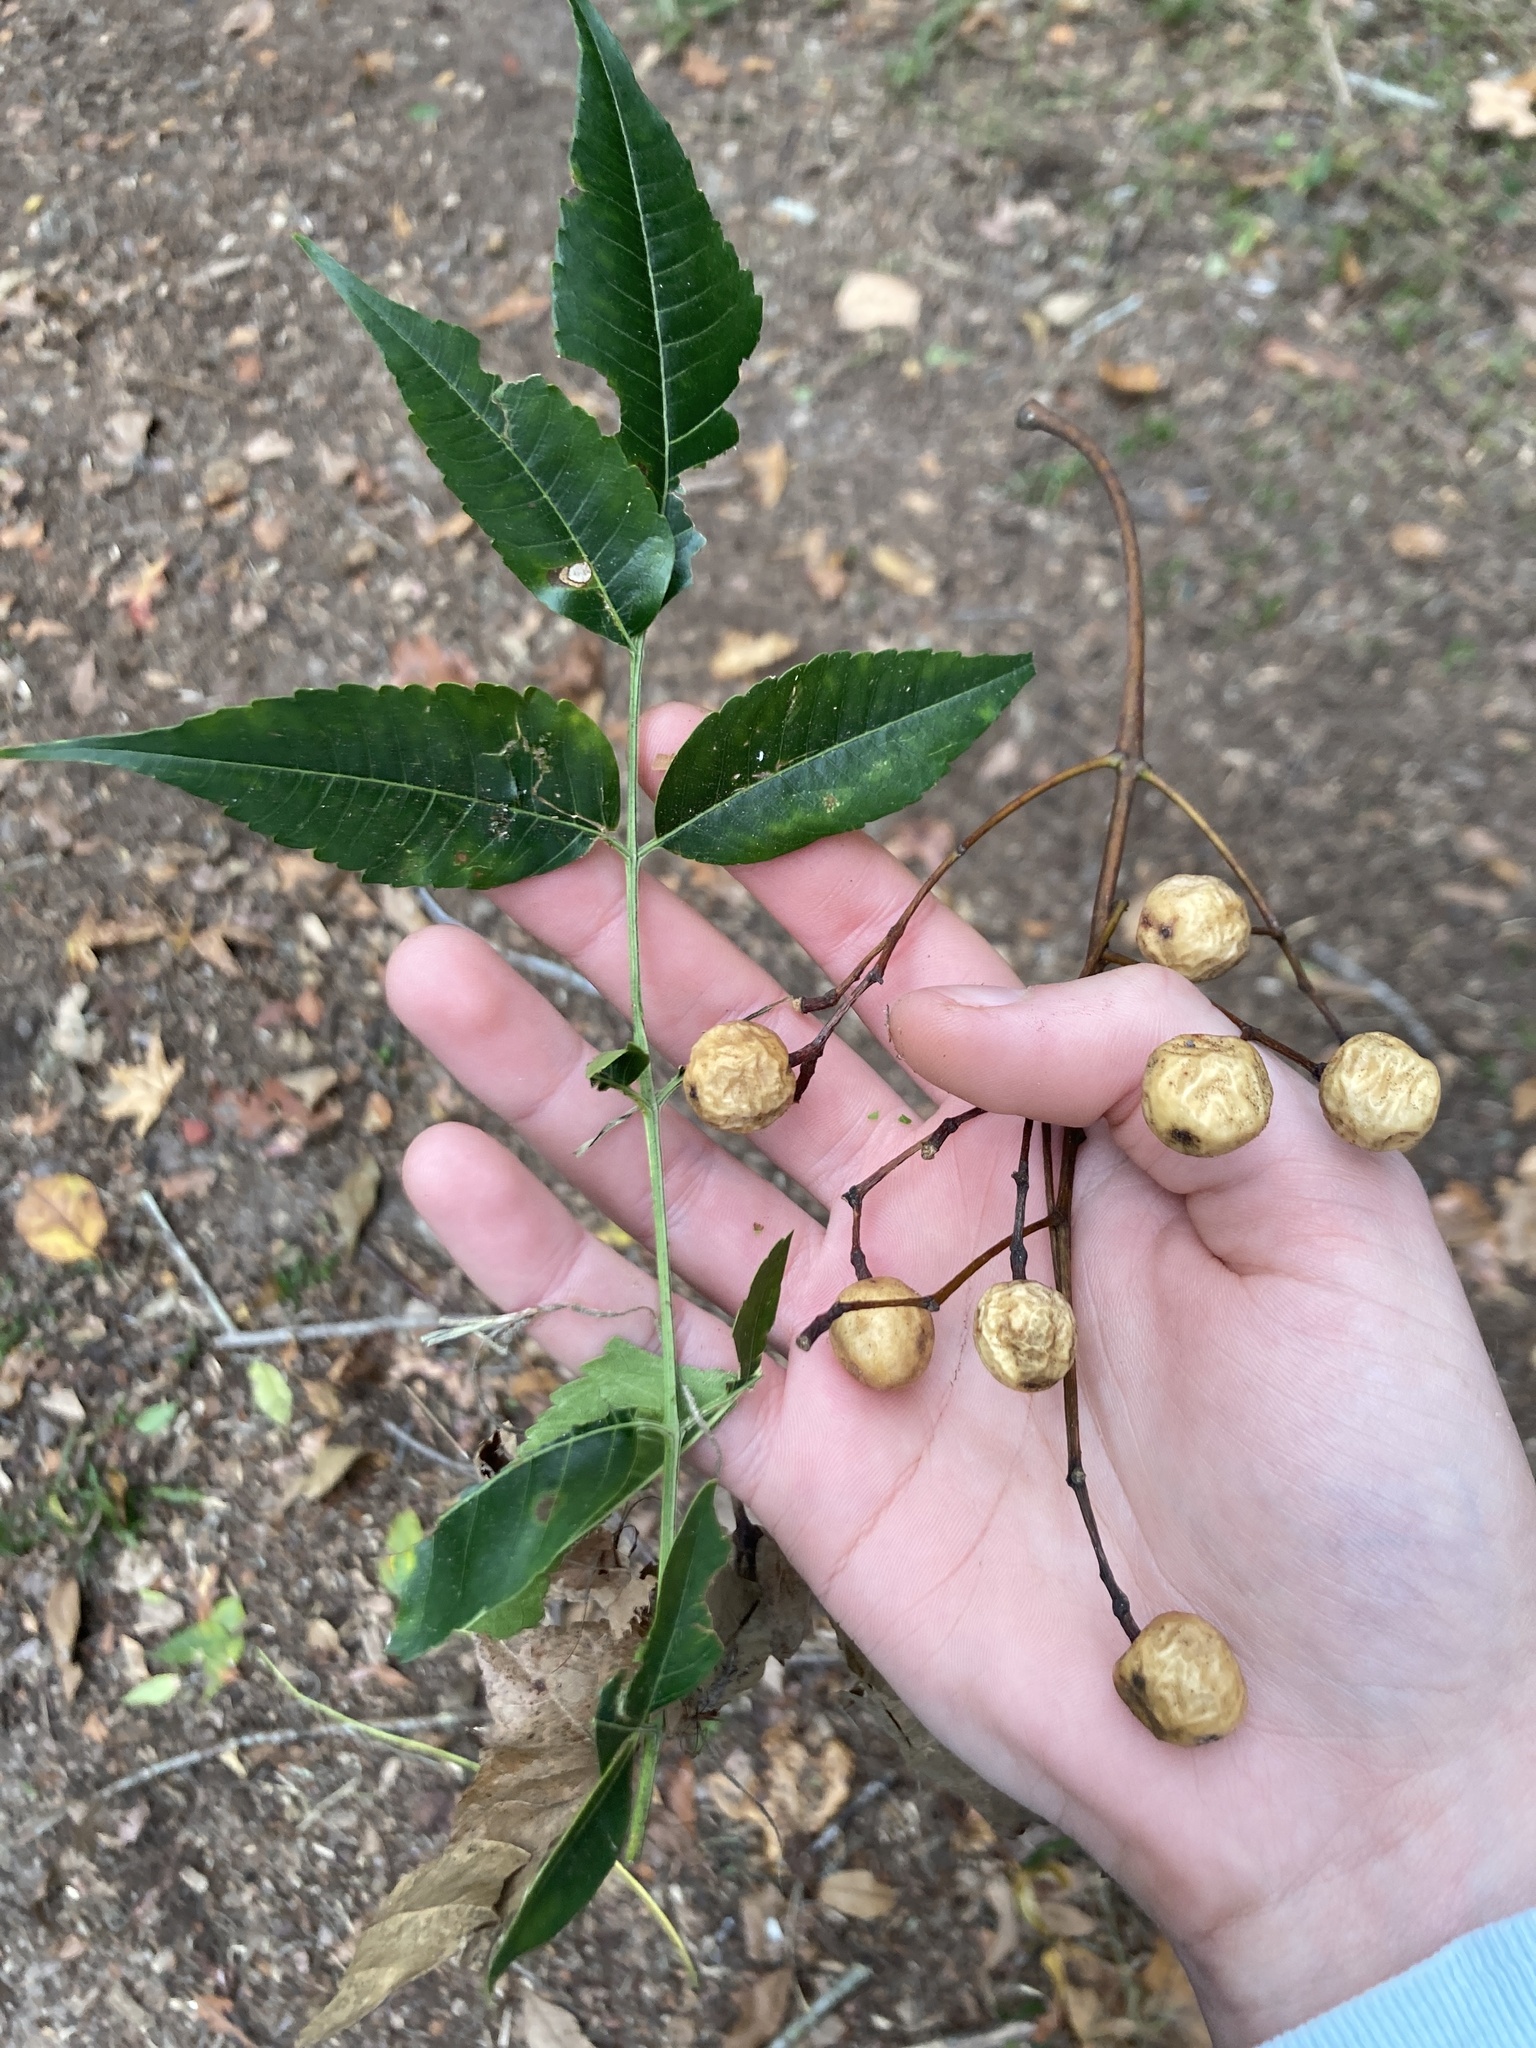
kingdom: Plantae
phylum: Tracheophyta
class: Magnoliopsida
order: Sapindales
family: Meliaceae
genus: Melia
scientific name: Melia azedarach
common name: Chinaberrytree
